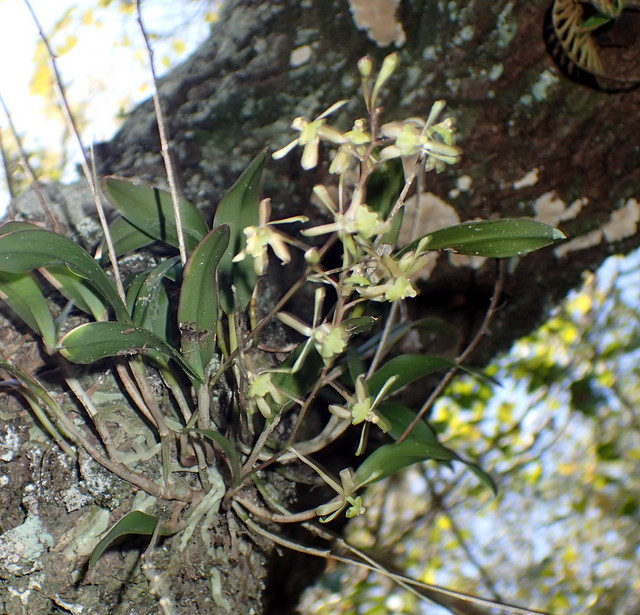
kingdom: Plantae
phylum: Tracheophyta
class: Liliopsida
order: Asparagales
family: Orchidaceae
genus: Epidendrum
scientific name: Epidendrum conopseum
